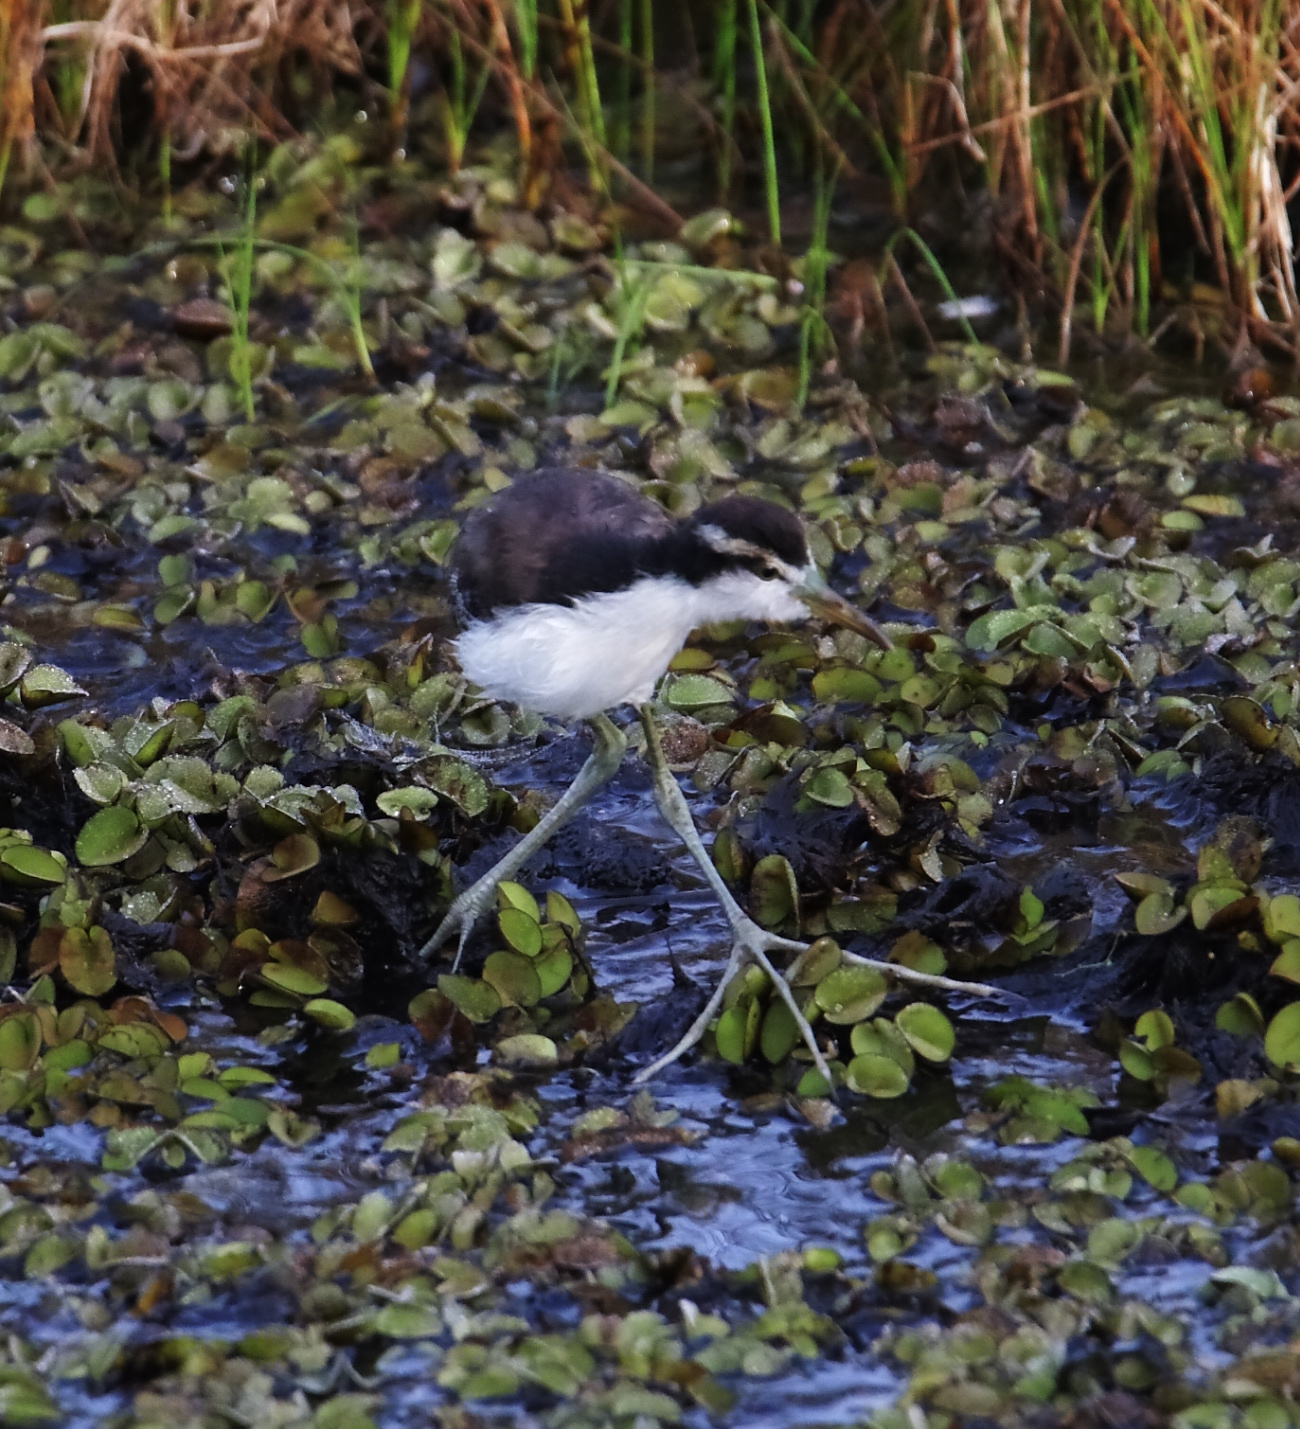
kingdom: Animalia
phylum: Chordata
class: Aves
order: Charadriiformes
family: Jacanidae
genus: Jacana
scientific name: Jacana jacana
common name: Wattled jacana
